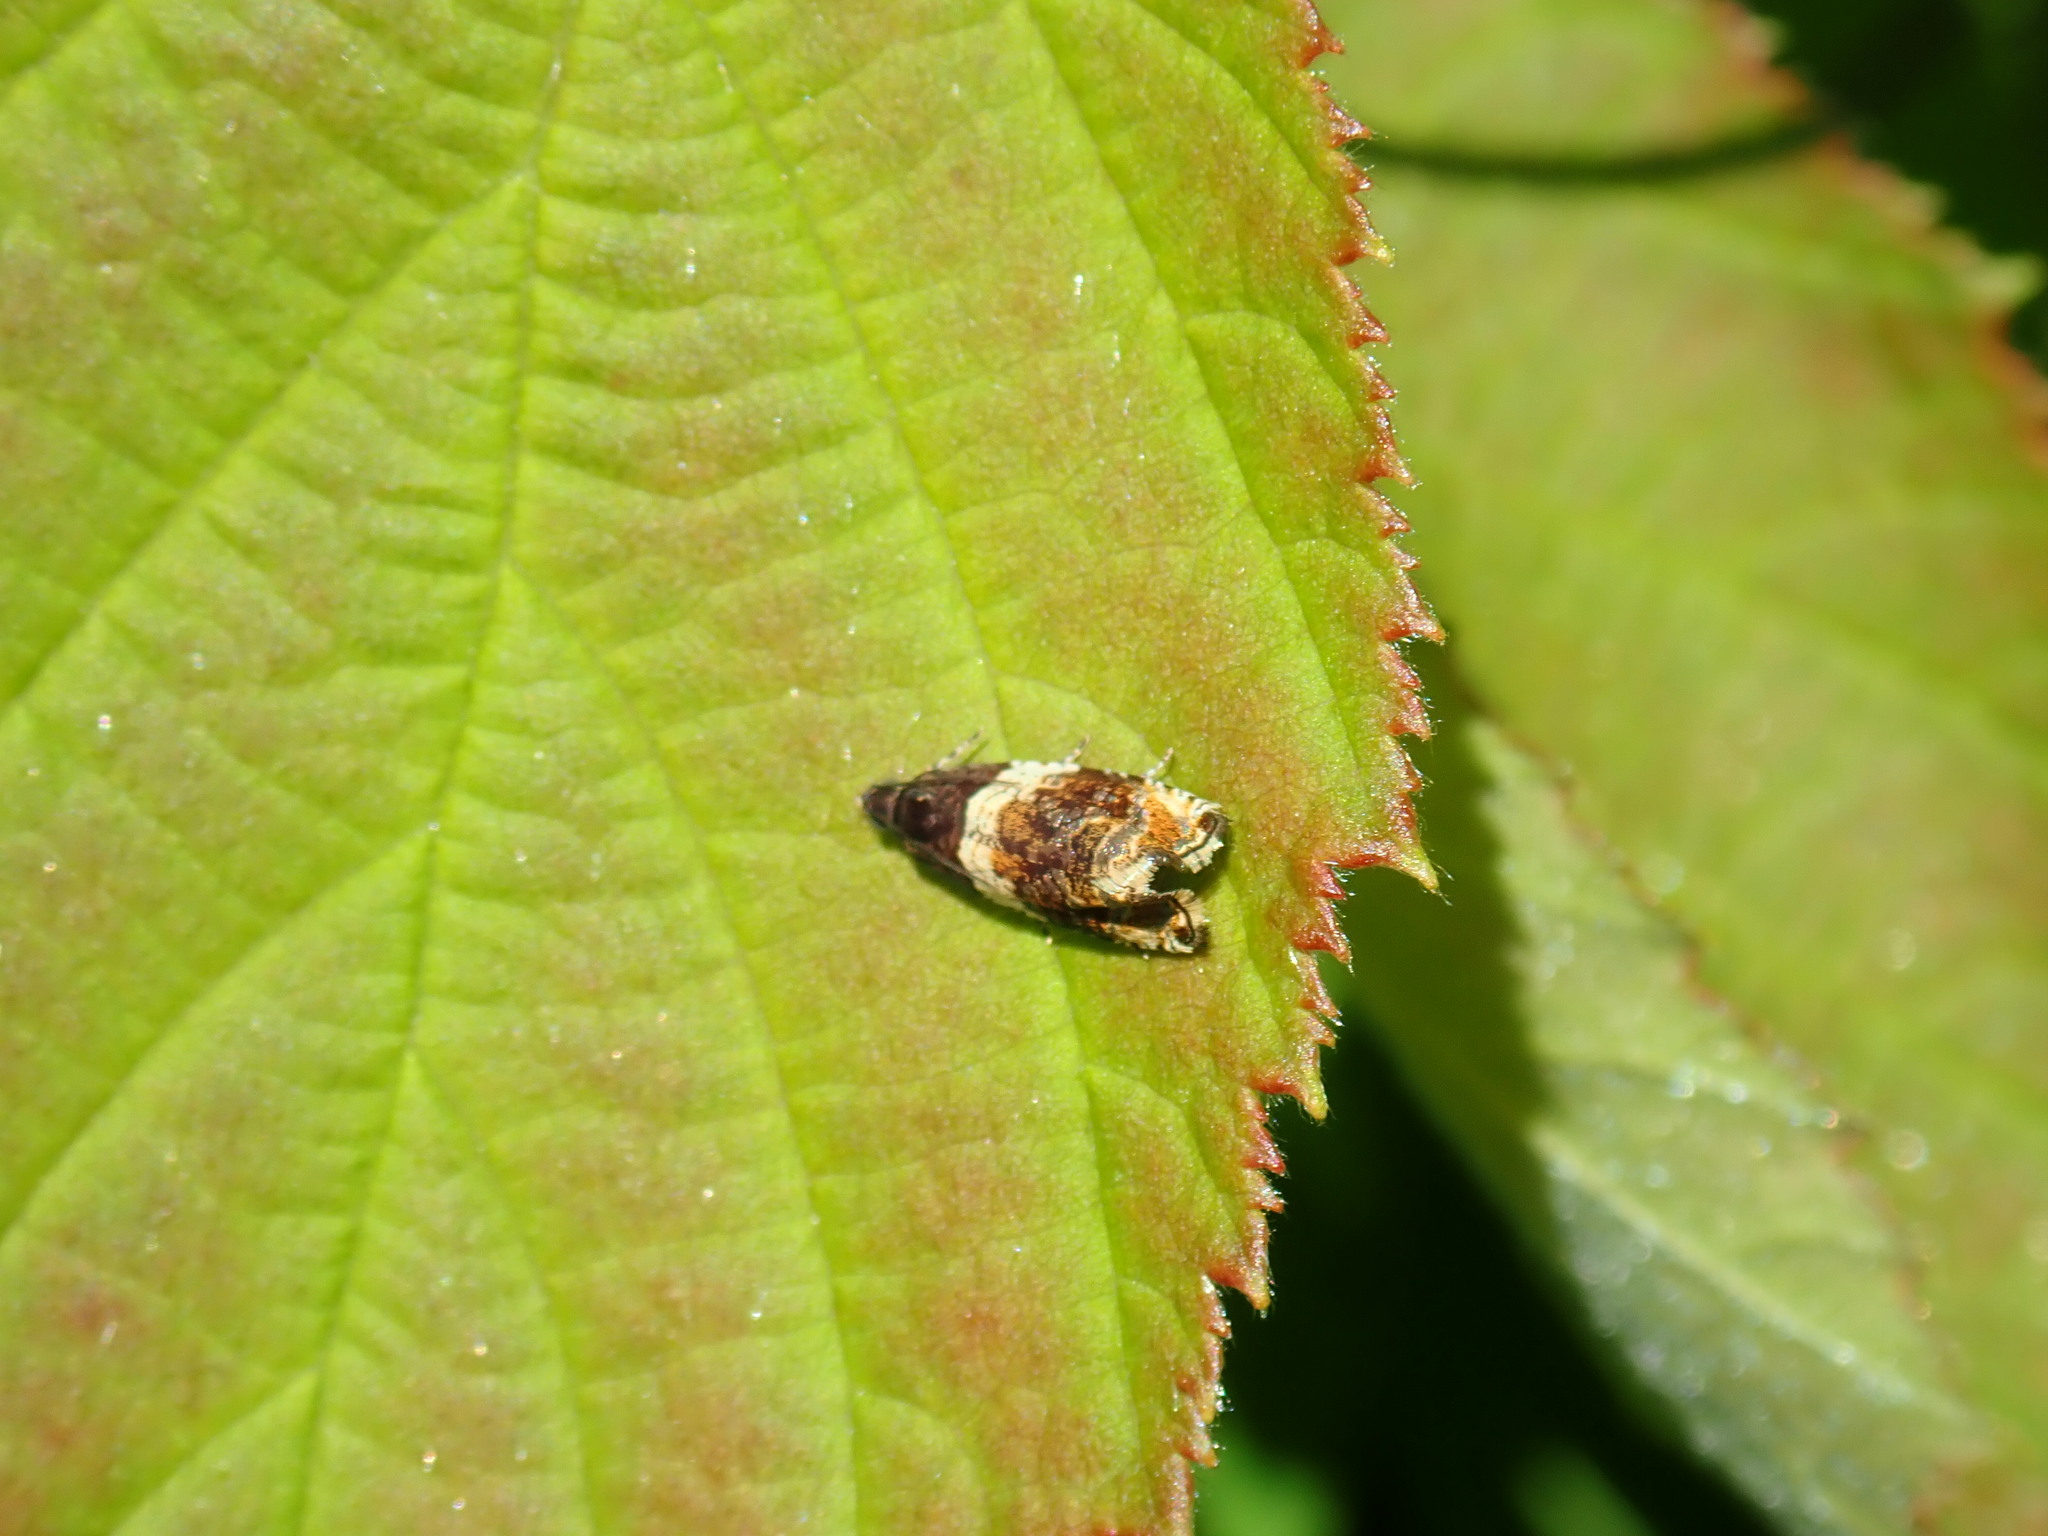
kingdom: Animalia
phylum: Arthropoda
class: Insecta
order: Lepidoptera
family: Tortricidae
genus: Olethreutes
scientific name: Olethreutes fasciatana
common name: Banded olethreutes moth
